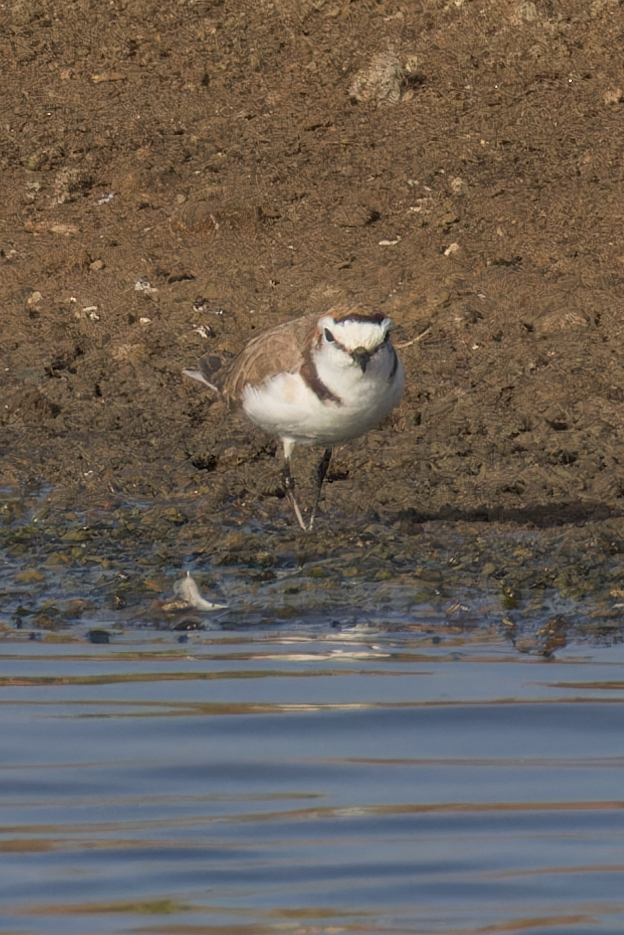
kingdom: Animalia
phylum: Chordata
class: Aves
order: Charadriiformes
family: Charadriidae
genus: Charadrius
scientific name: Charadrius alexandrinus
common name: Kentish plover
